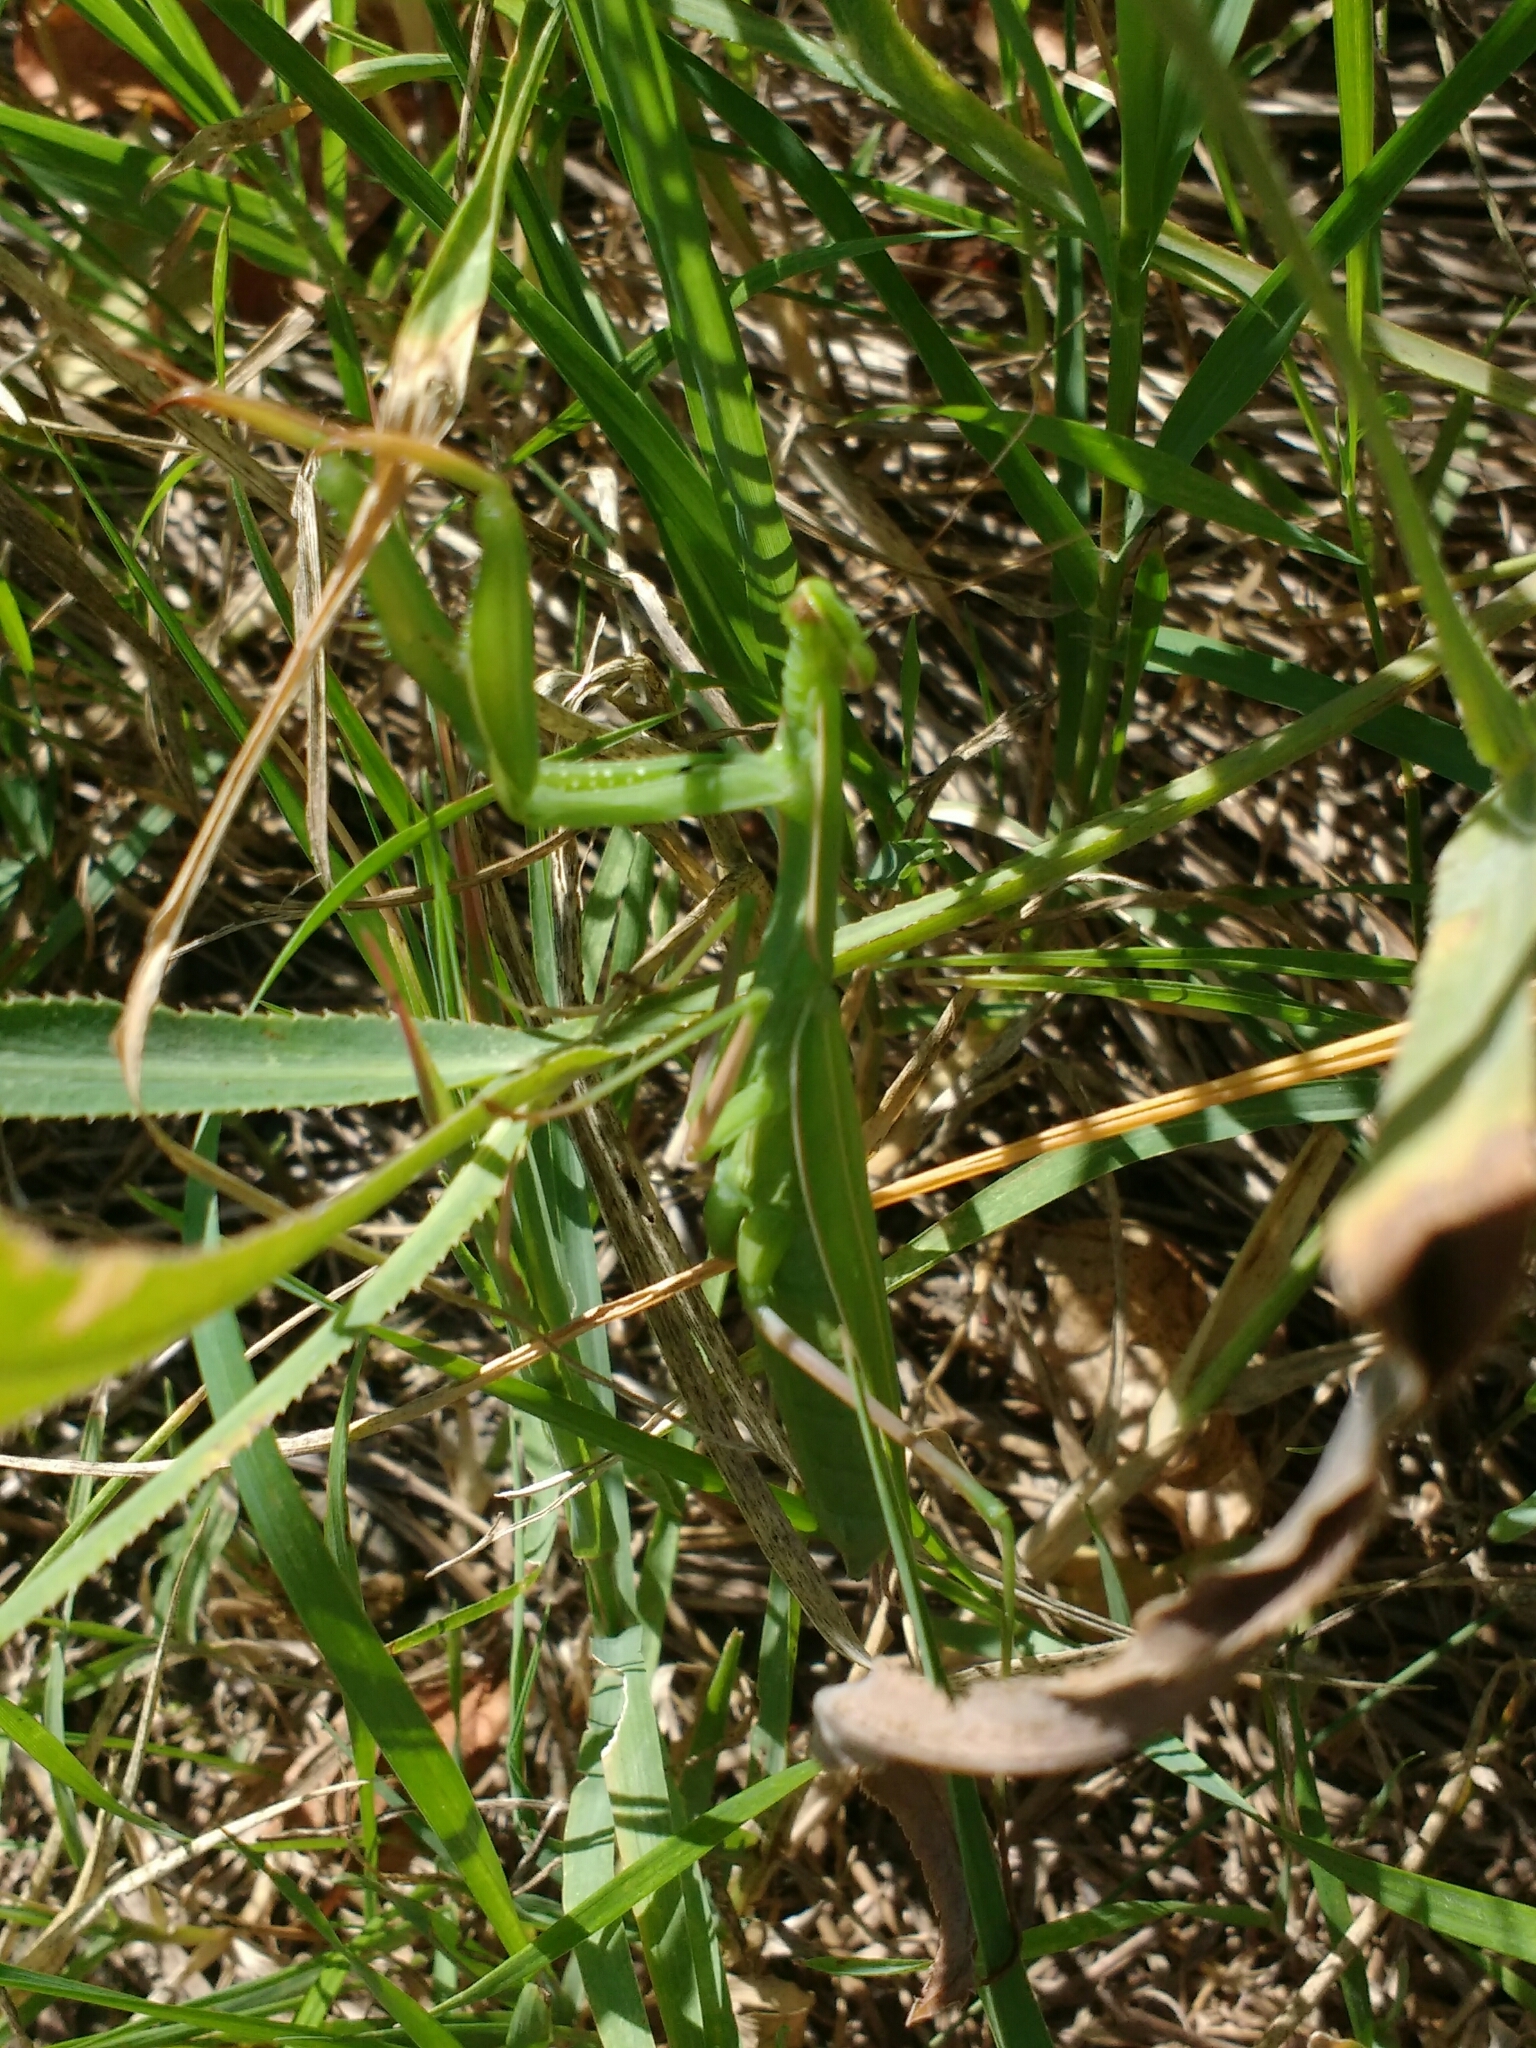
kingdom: Animalia
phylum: Arthropoda
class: Insecta
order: Mantodea
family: Mantidae
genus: Mantis
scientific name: Mantis religiosa
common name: Praying mantis
